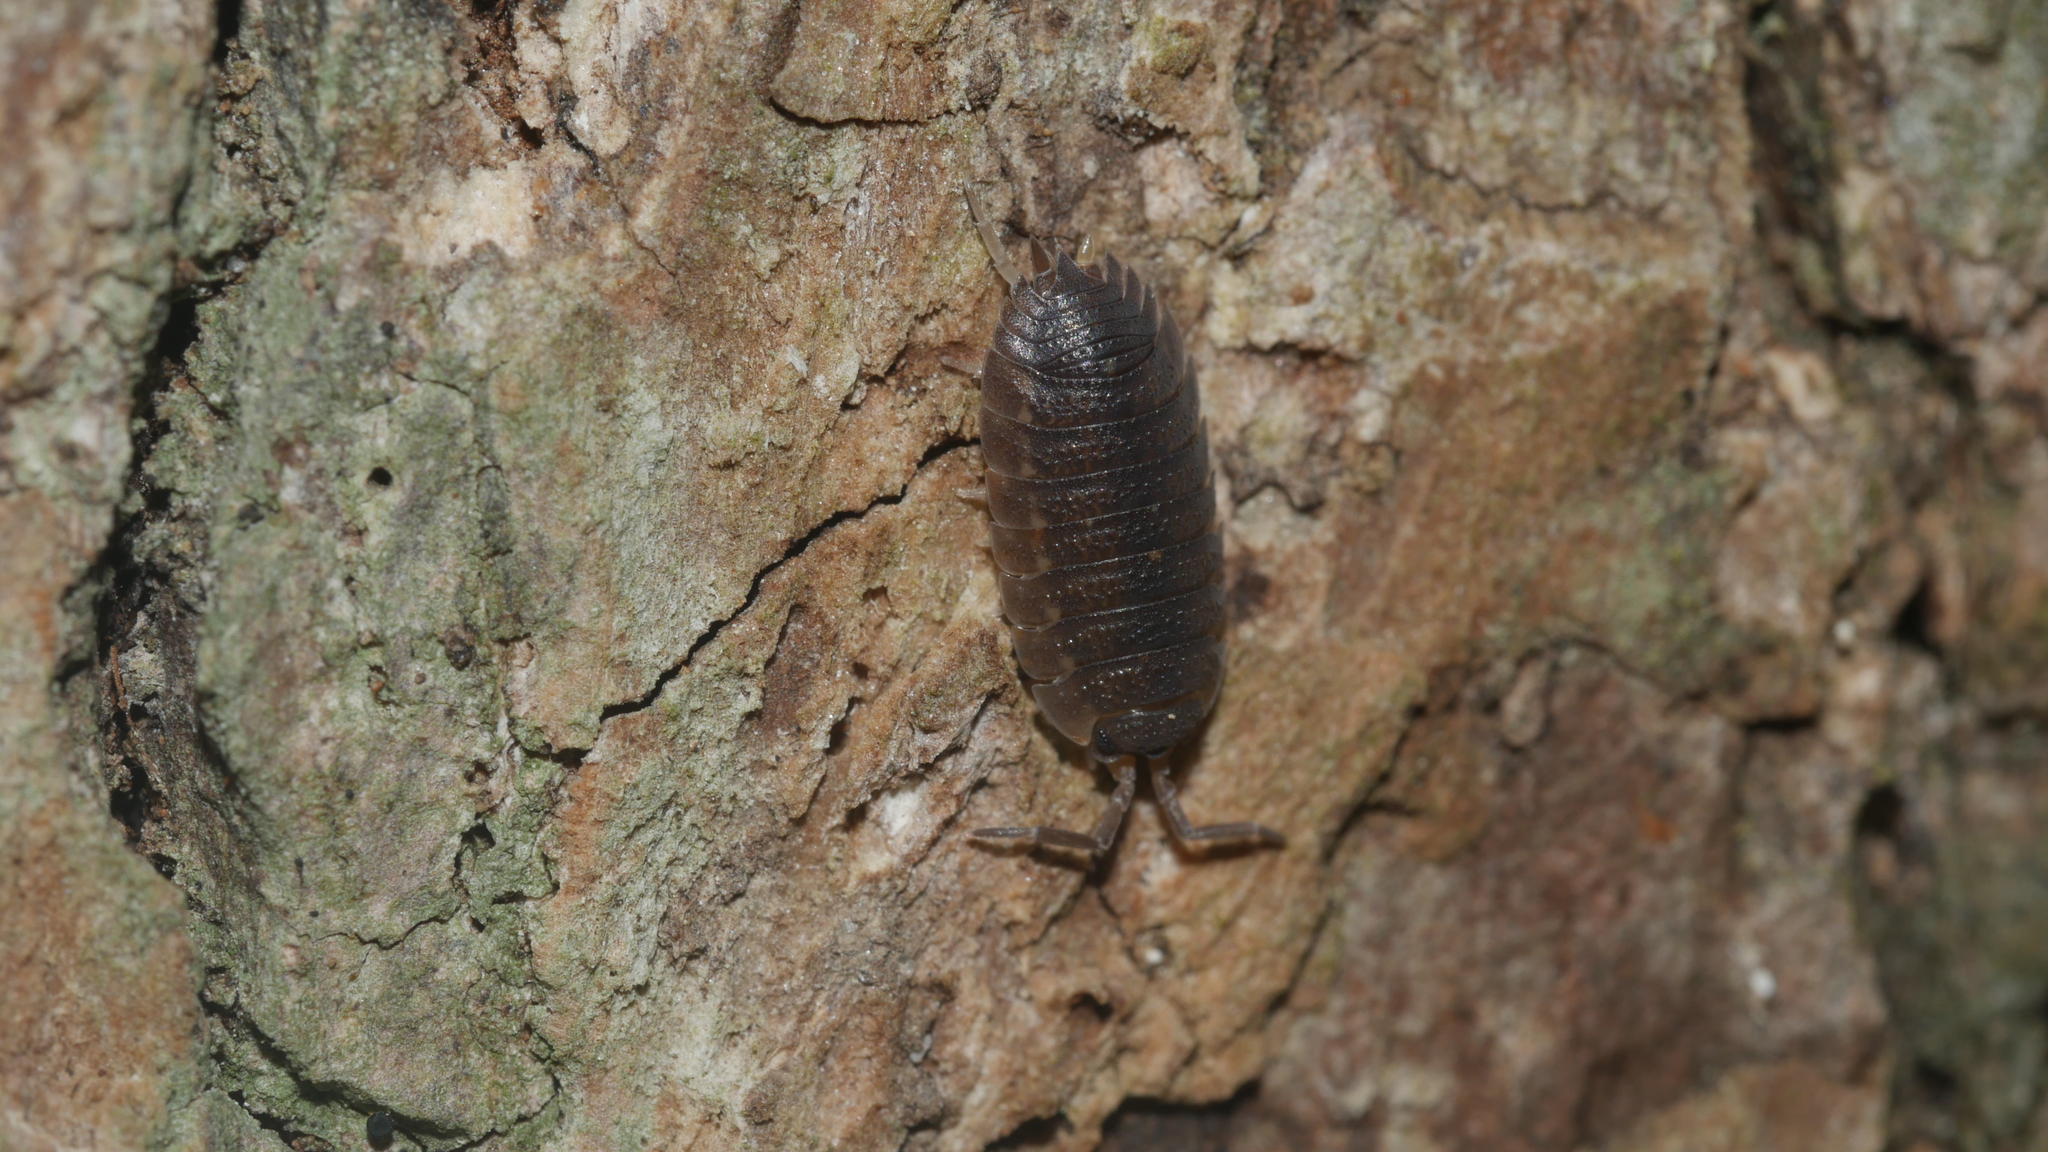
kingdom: Animalia
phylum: Arthropoda
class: Malacostraca
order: Isopoda
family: Porcellionidae
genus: Porcellio
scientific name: Porcellio scaber
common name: Common rough woodlouse
